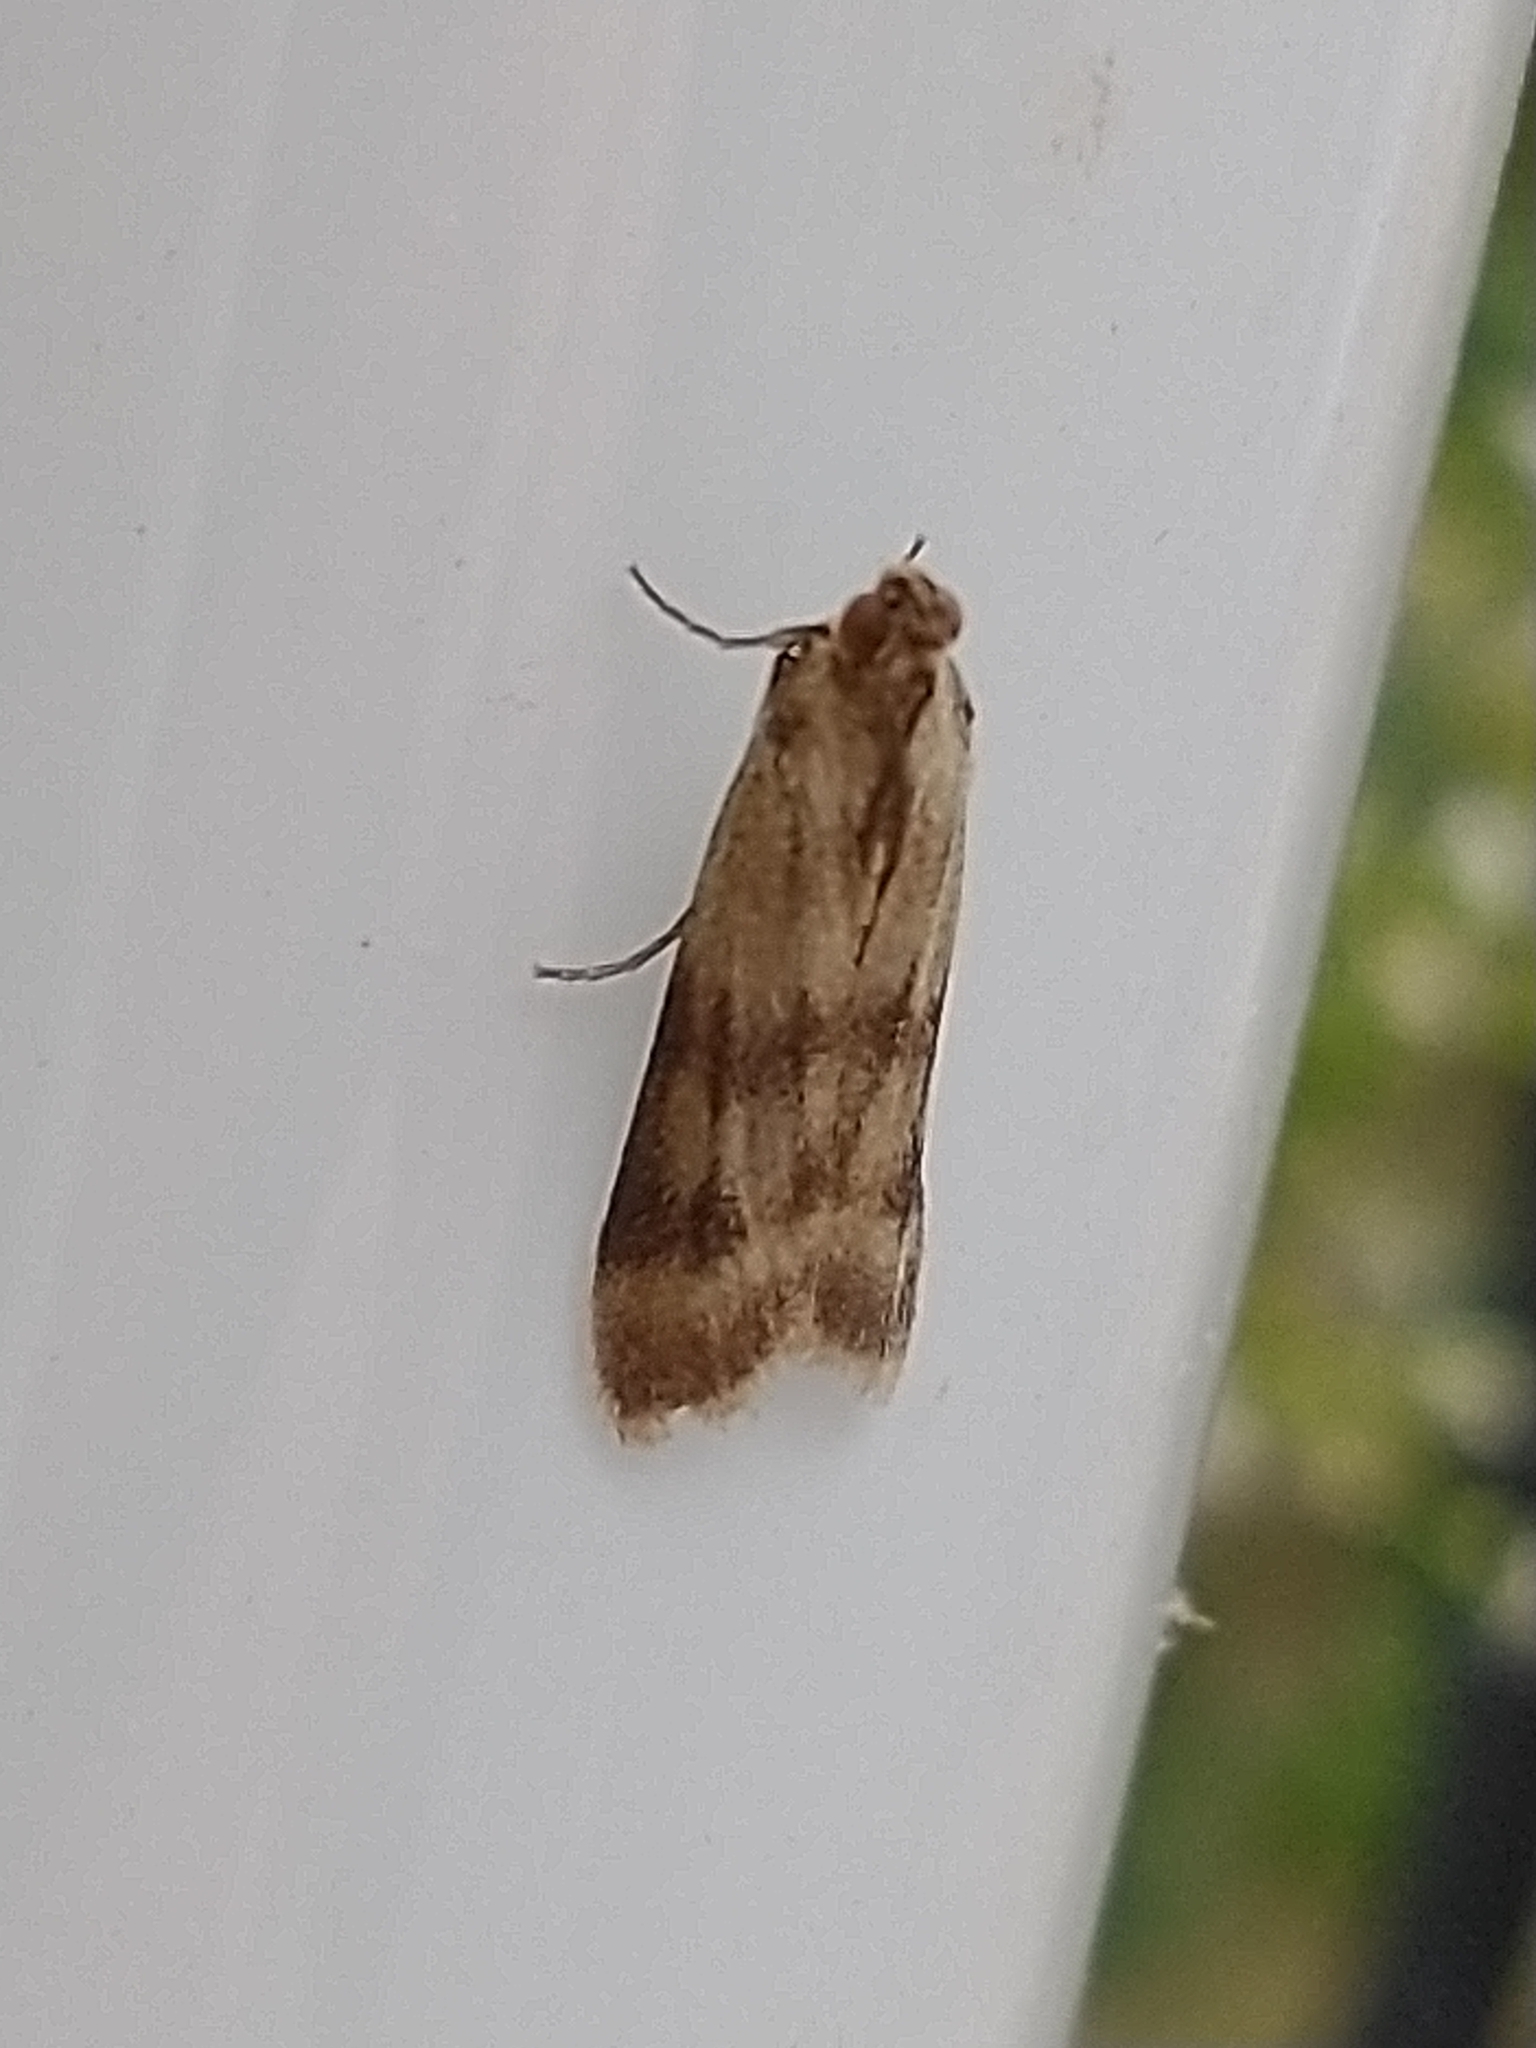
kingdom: Animalia
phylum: Arthropoda
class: Insecta
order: Lepidoptera
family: Pyralidae
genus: Homoeosoma
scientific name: Homoeosoma sinuella
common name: Twin-barred knot-horn
